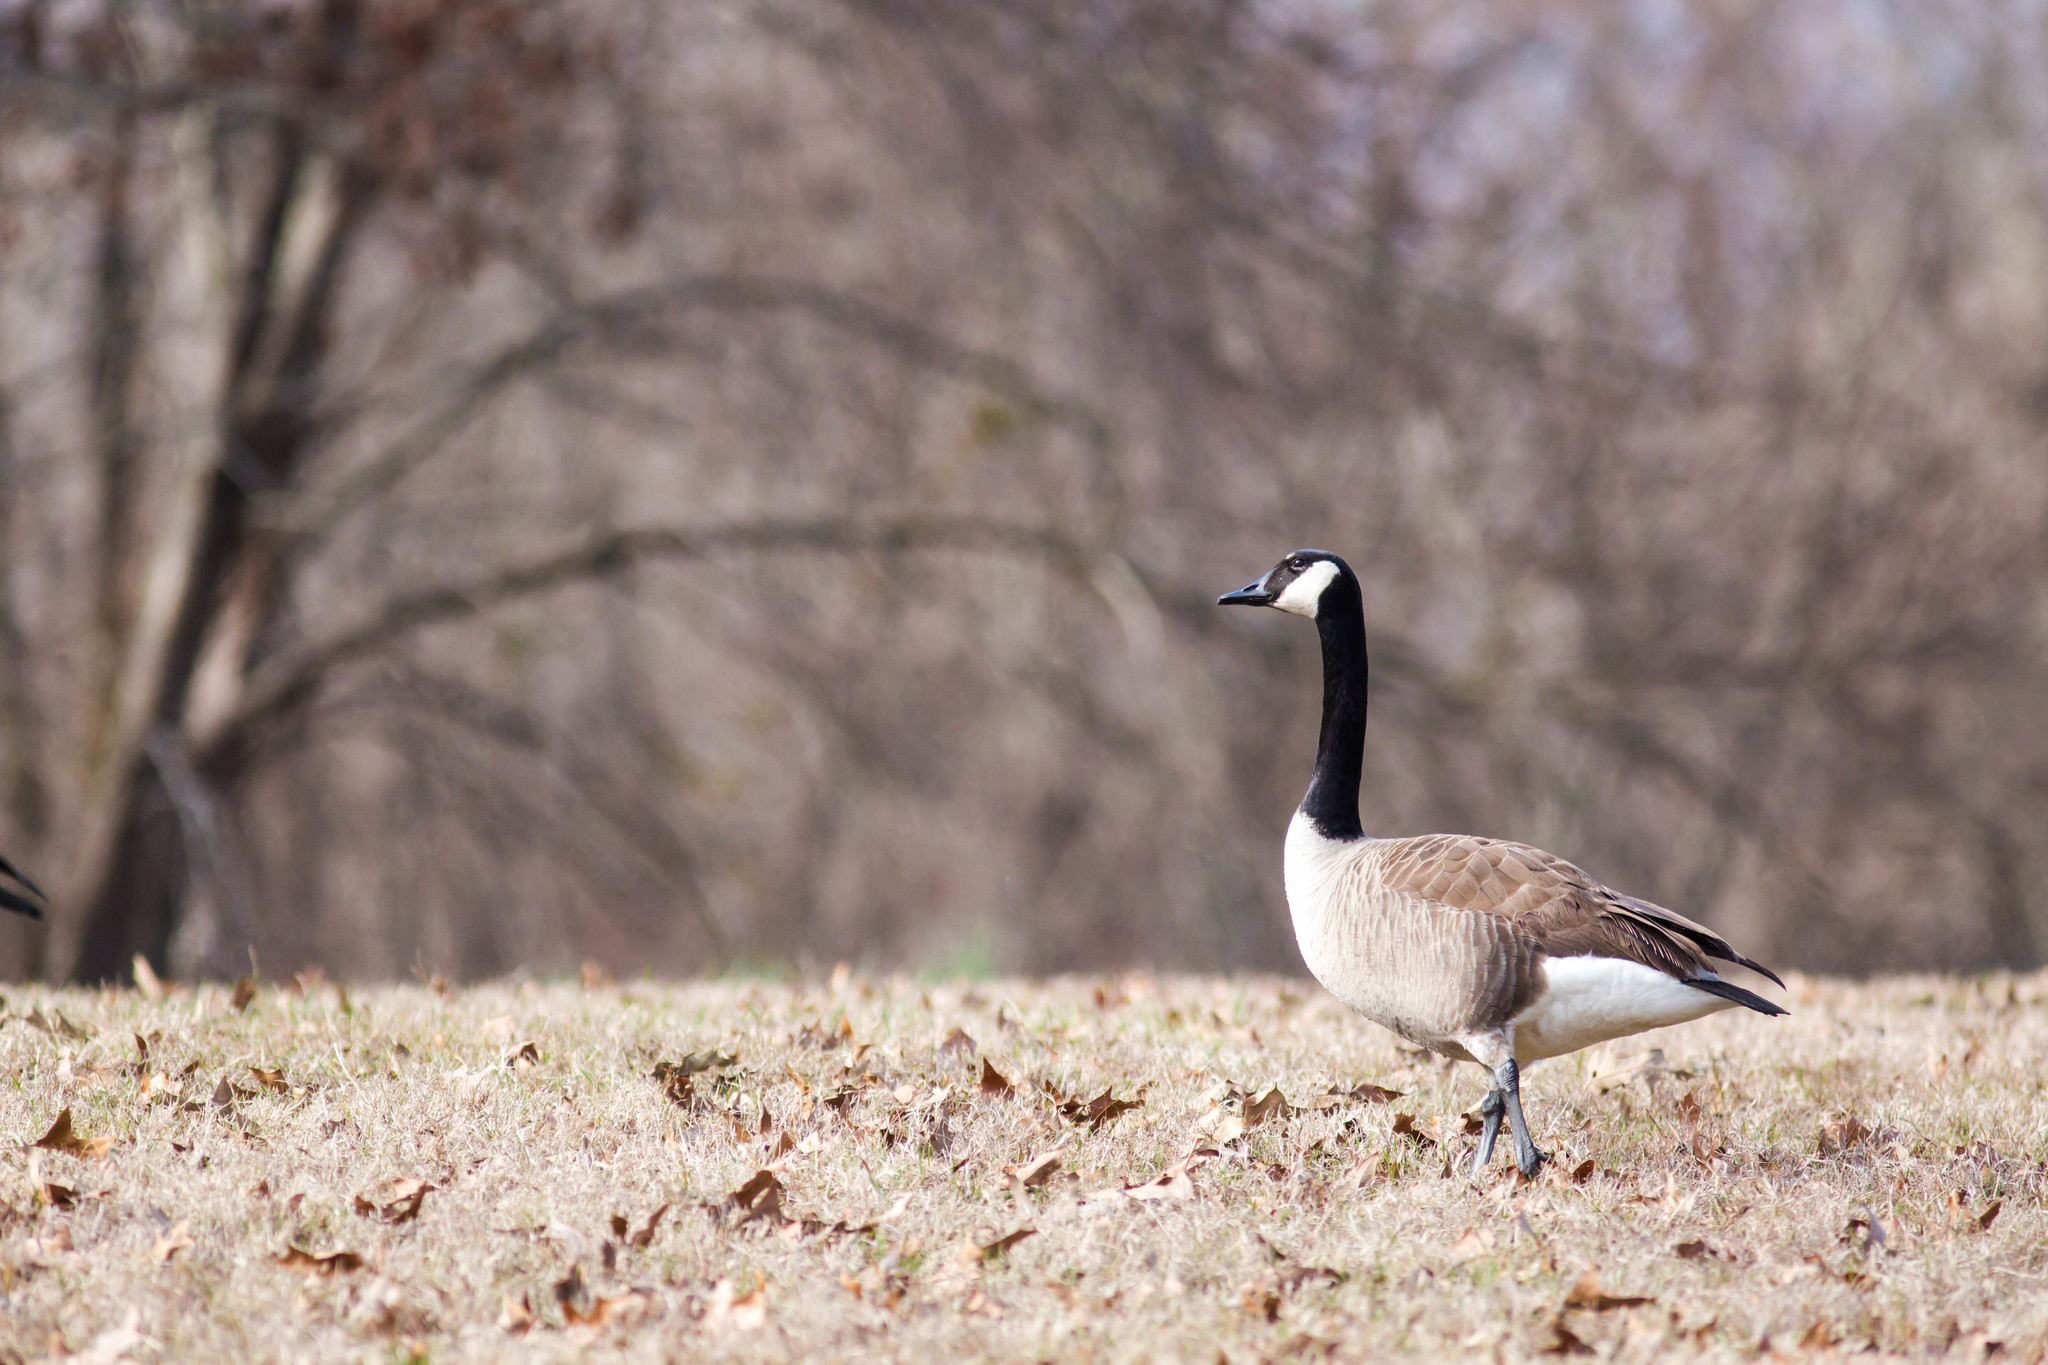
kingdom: Animalia
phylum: Chordata
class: Aves
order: Anseriformes
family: Anatidae
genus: Branta
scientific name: Branta canadensis
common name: Canada goose
